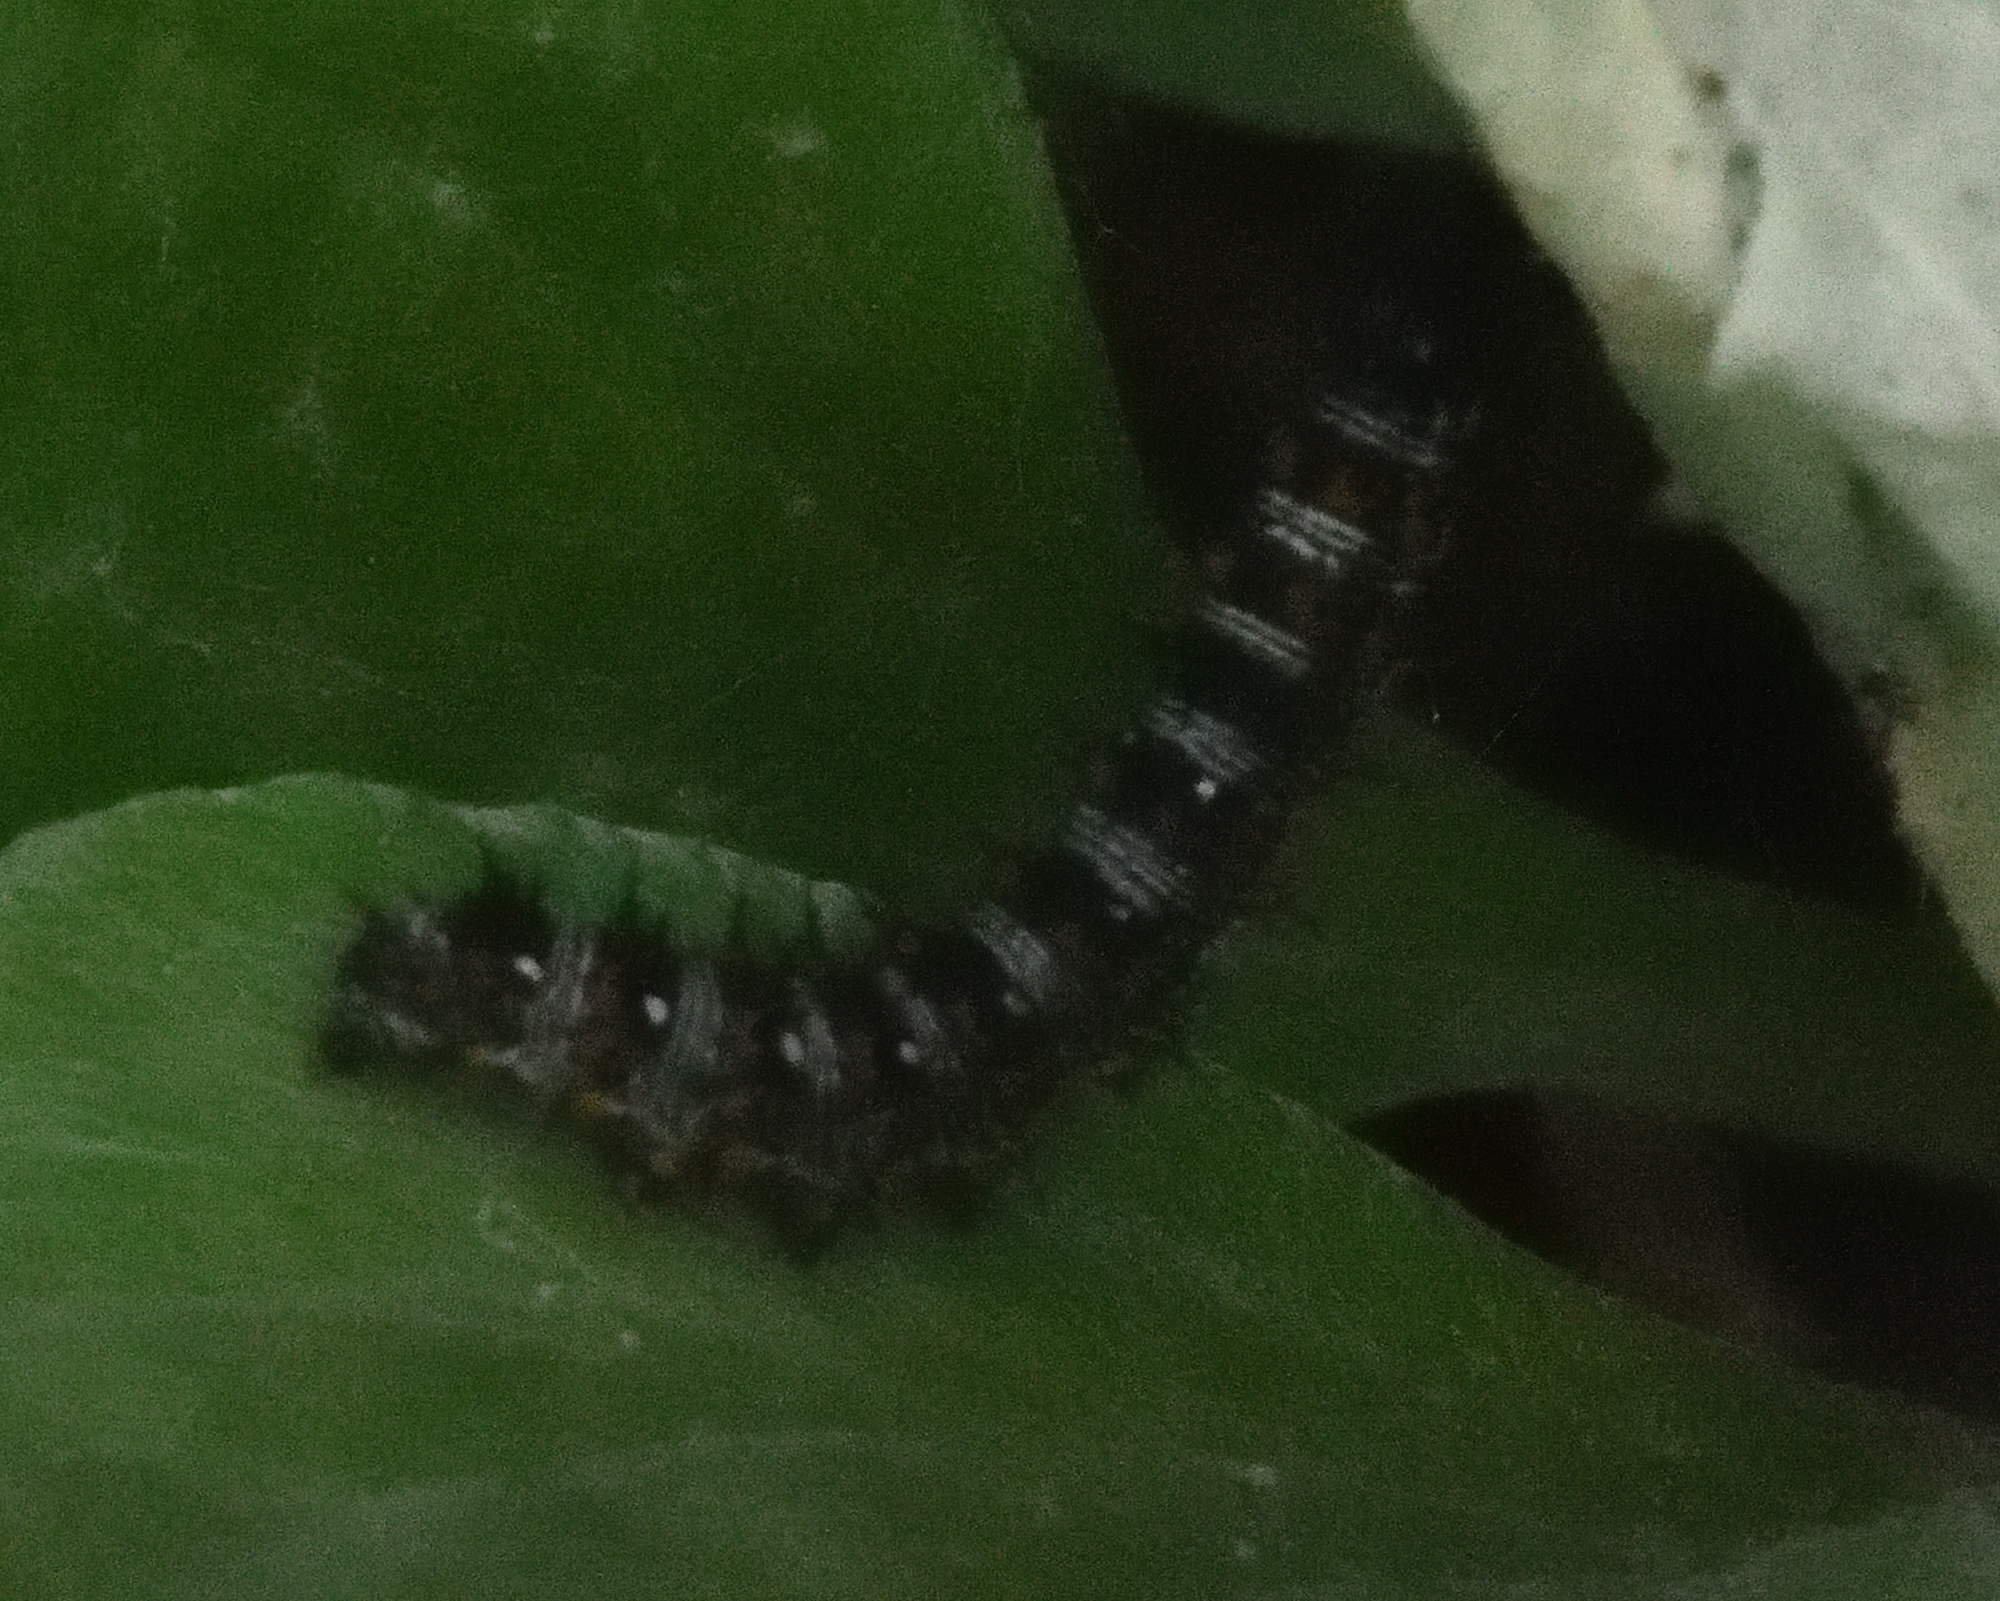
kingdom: Animalia
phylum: Arthropoda
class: Insecta
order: Lepidoptera
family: Nymphalidae
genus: Vanessa
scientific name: Vanessa virginiensis
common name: American lady
